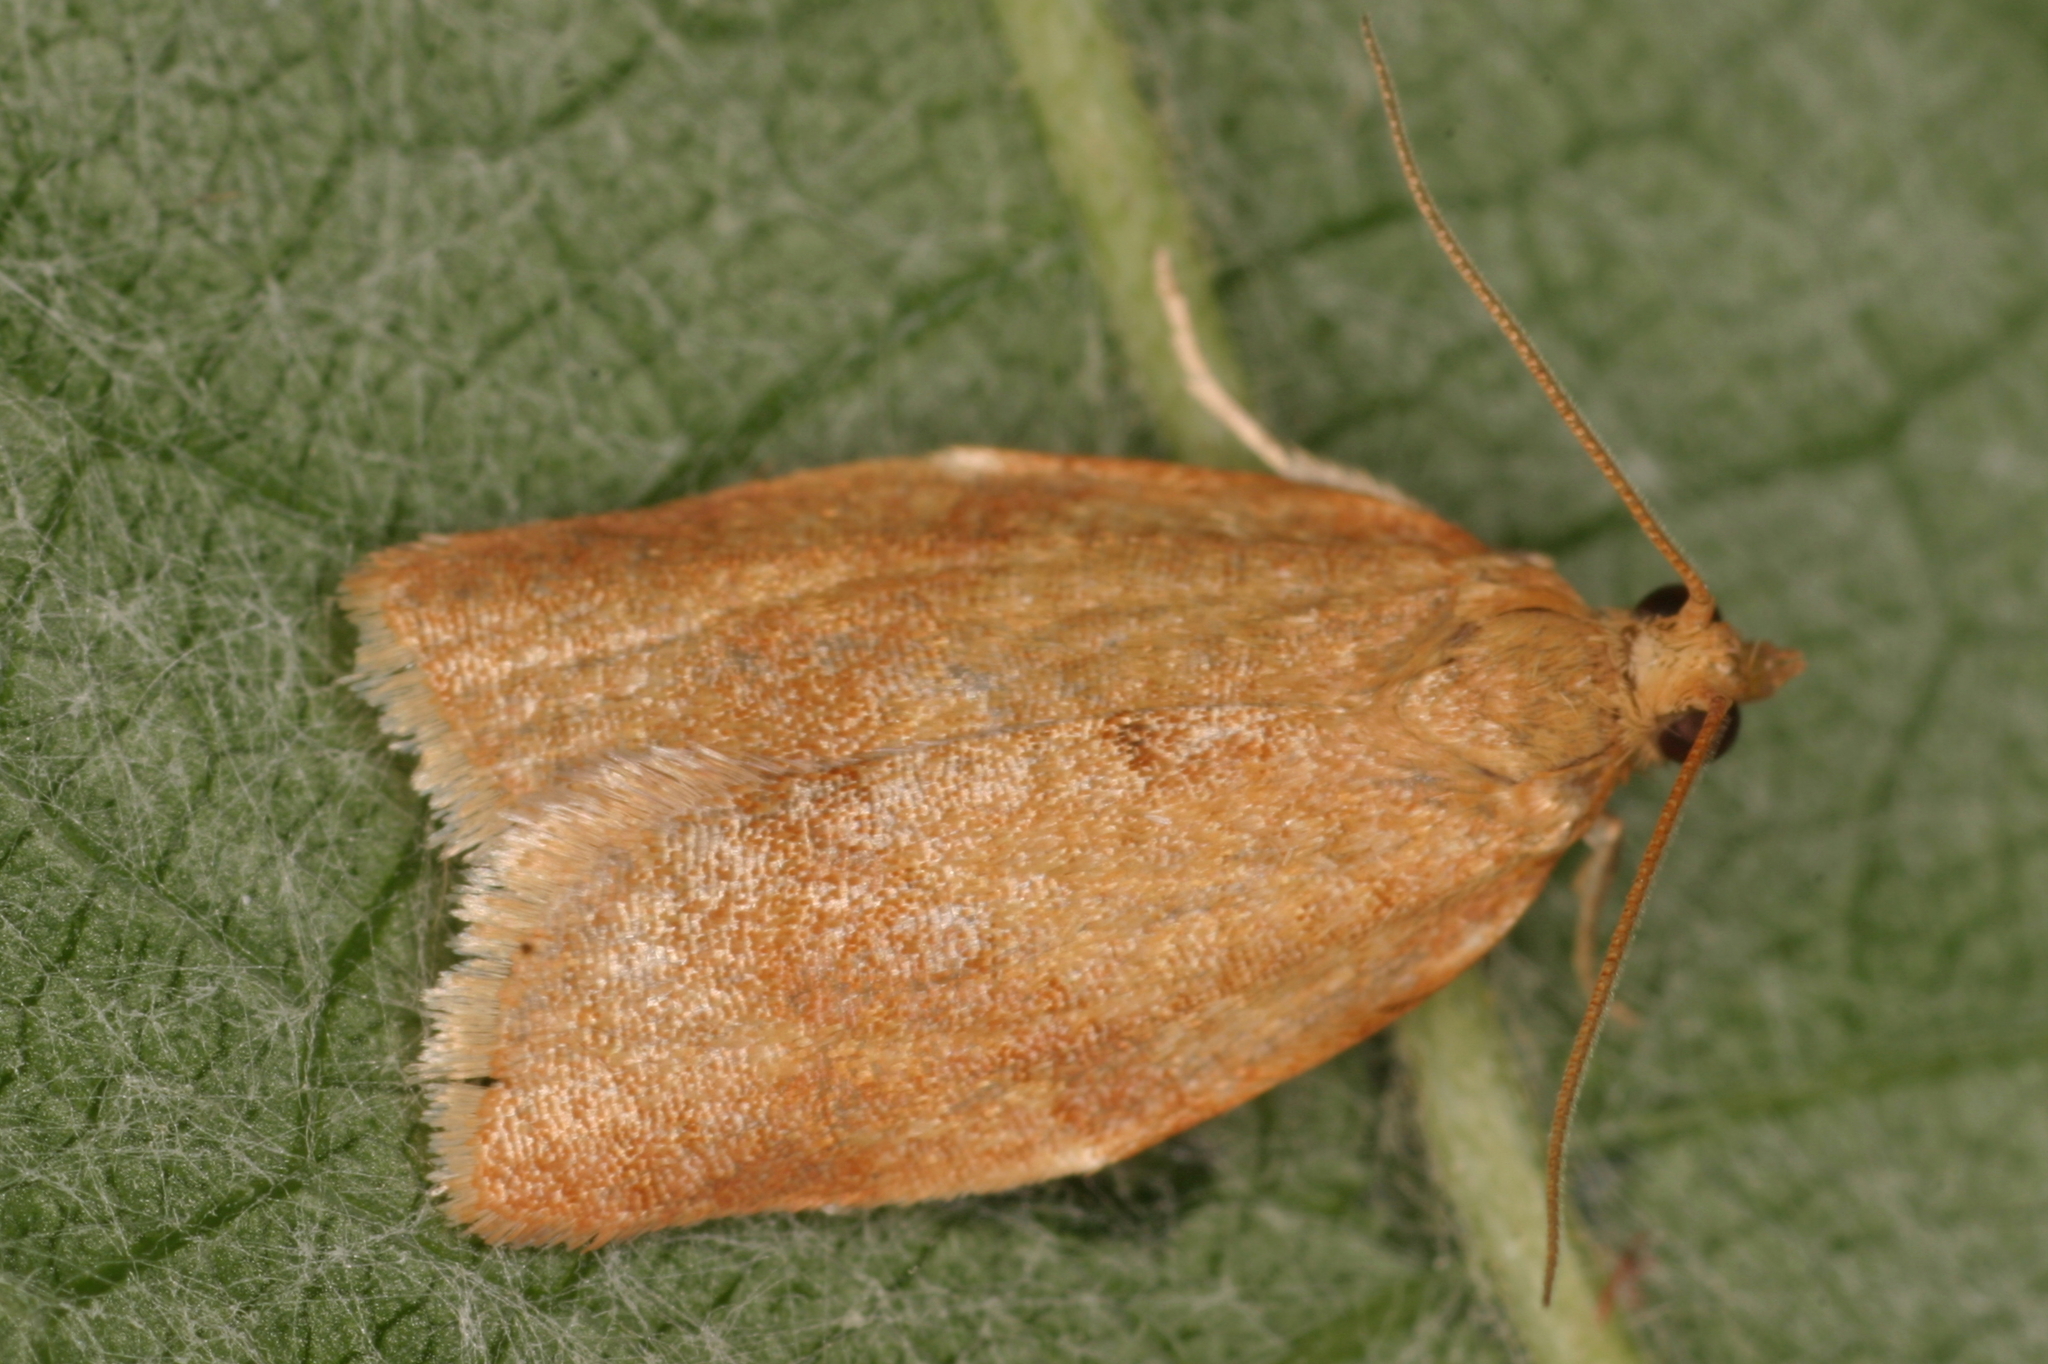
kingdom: Animalia
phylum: Arthropoda
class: Insecta
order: Lepidoptera
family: Tortricidae
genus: Clepsis
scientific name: Clepsis consimilana
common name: Privet tortrix
